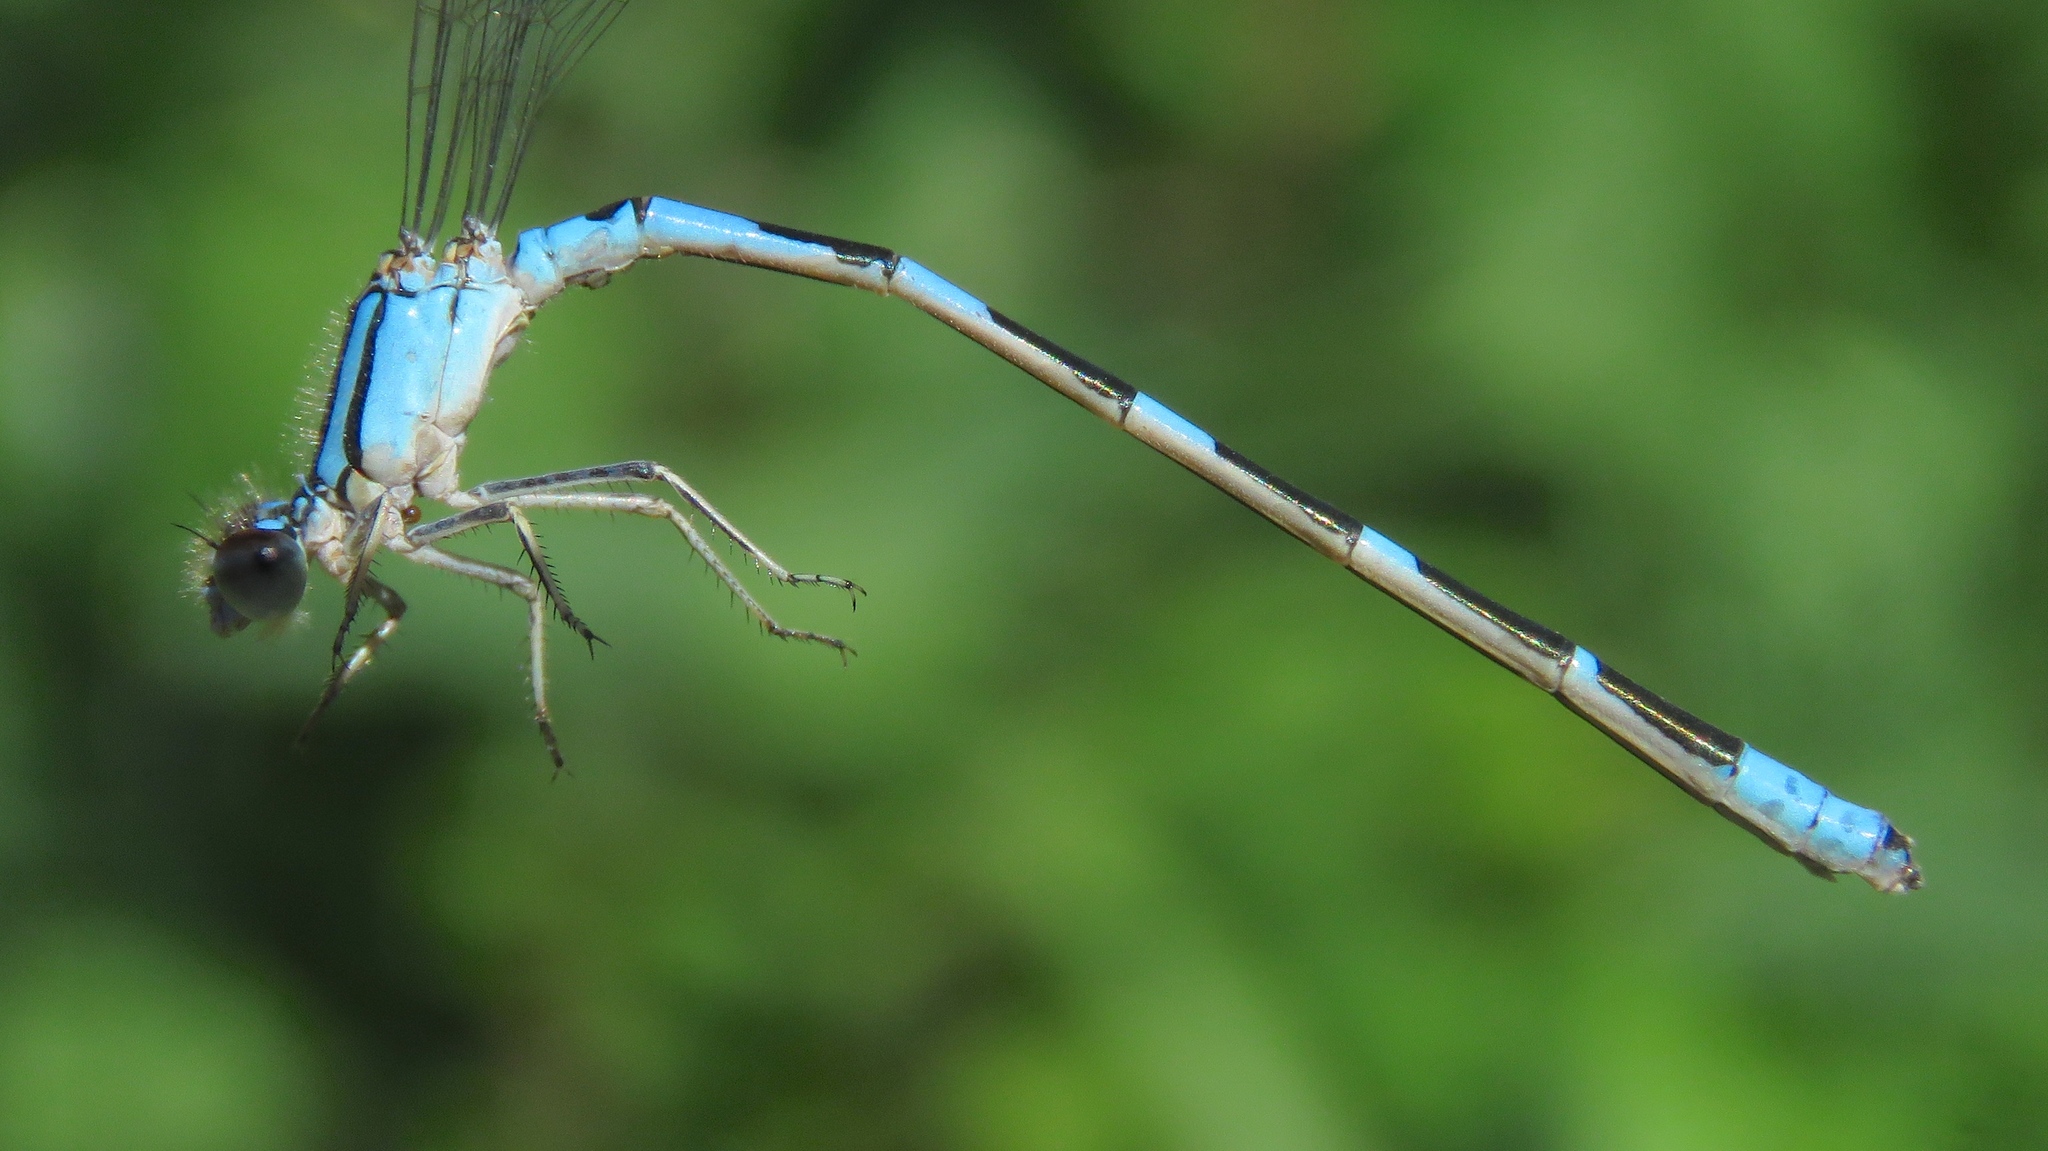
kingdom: Animalia
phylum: Arthropoda
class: Insecta
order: Odonata
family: Coenagrionidae
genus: Enallagma
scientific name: Enallagma carunculatum
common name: Tule bluet
